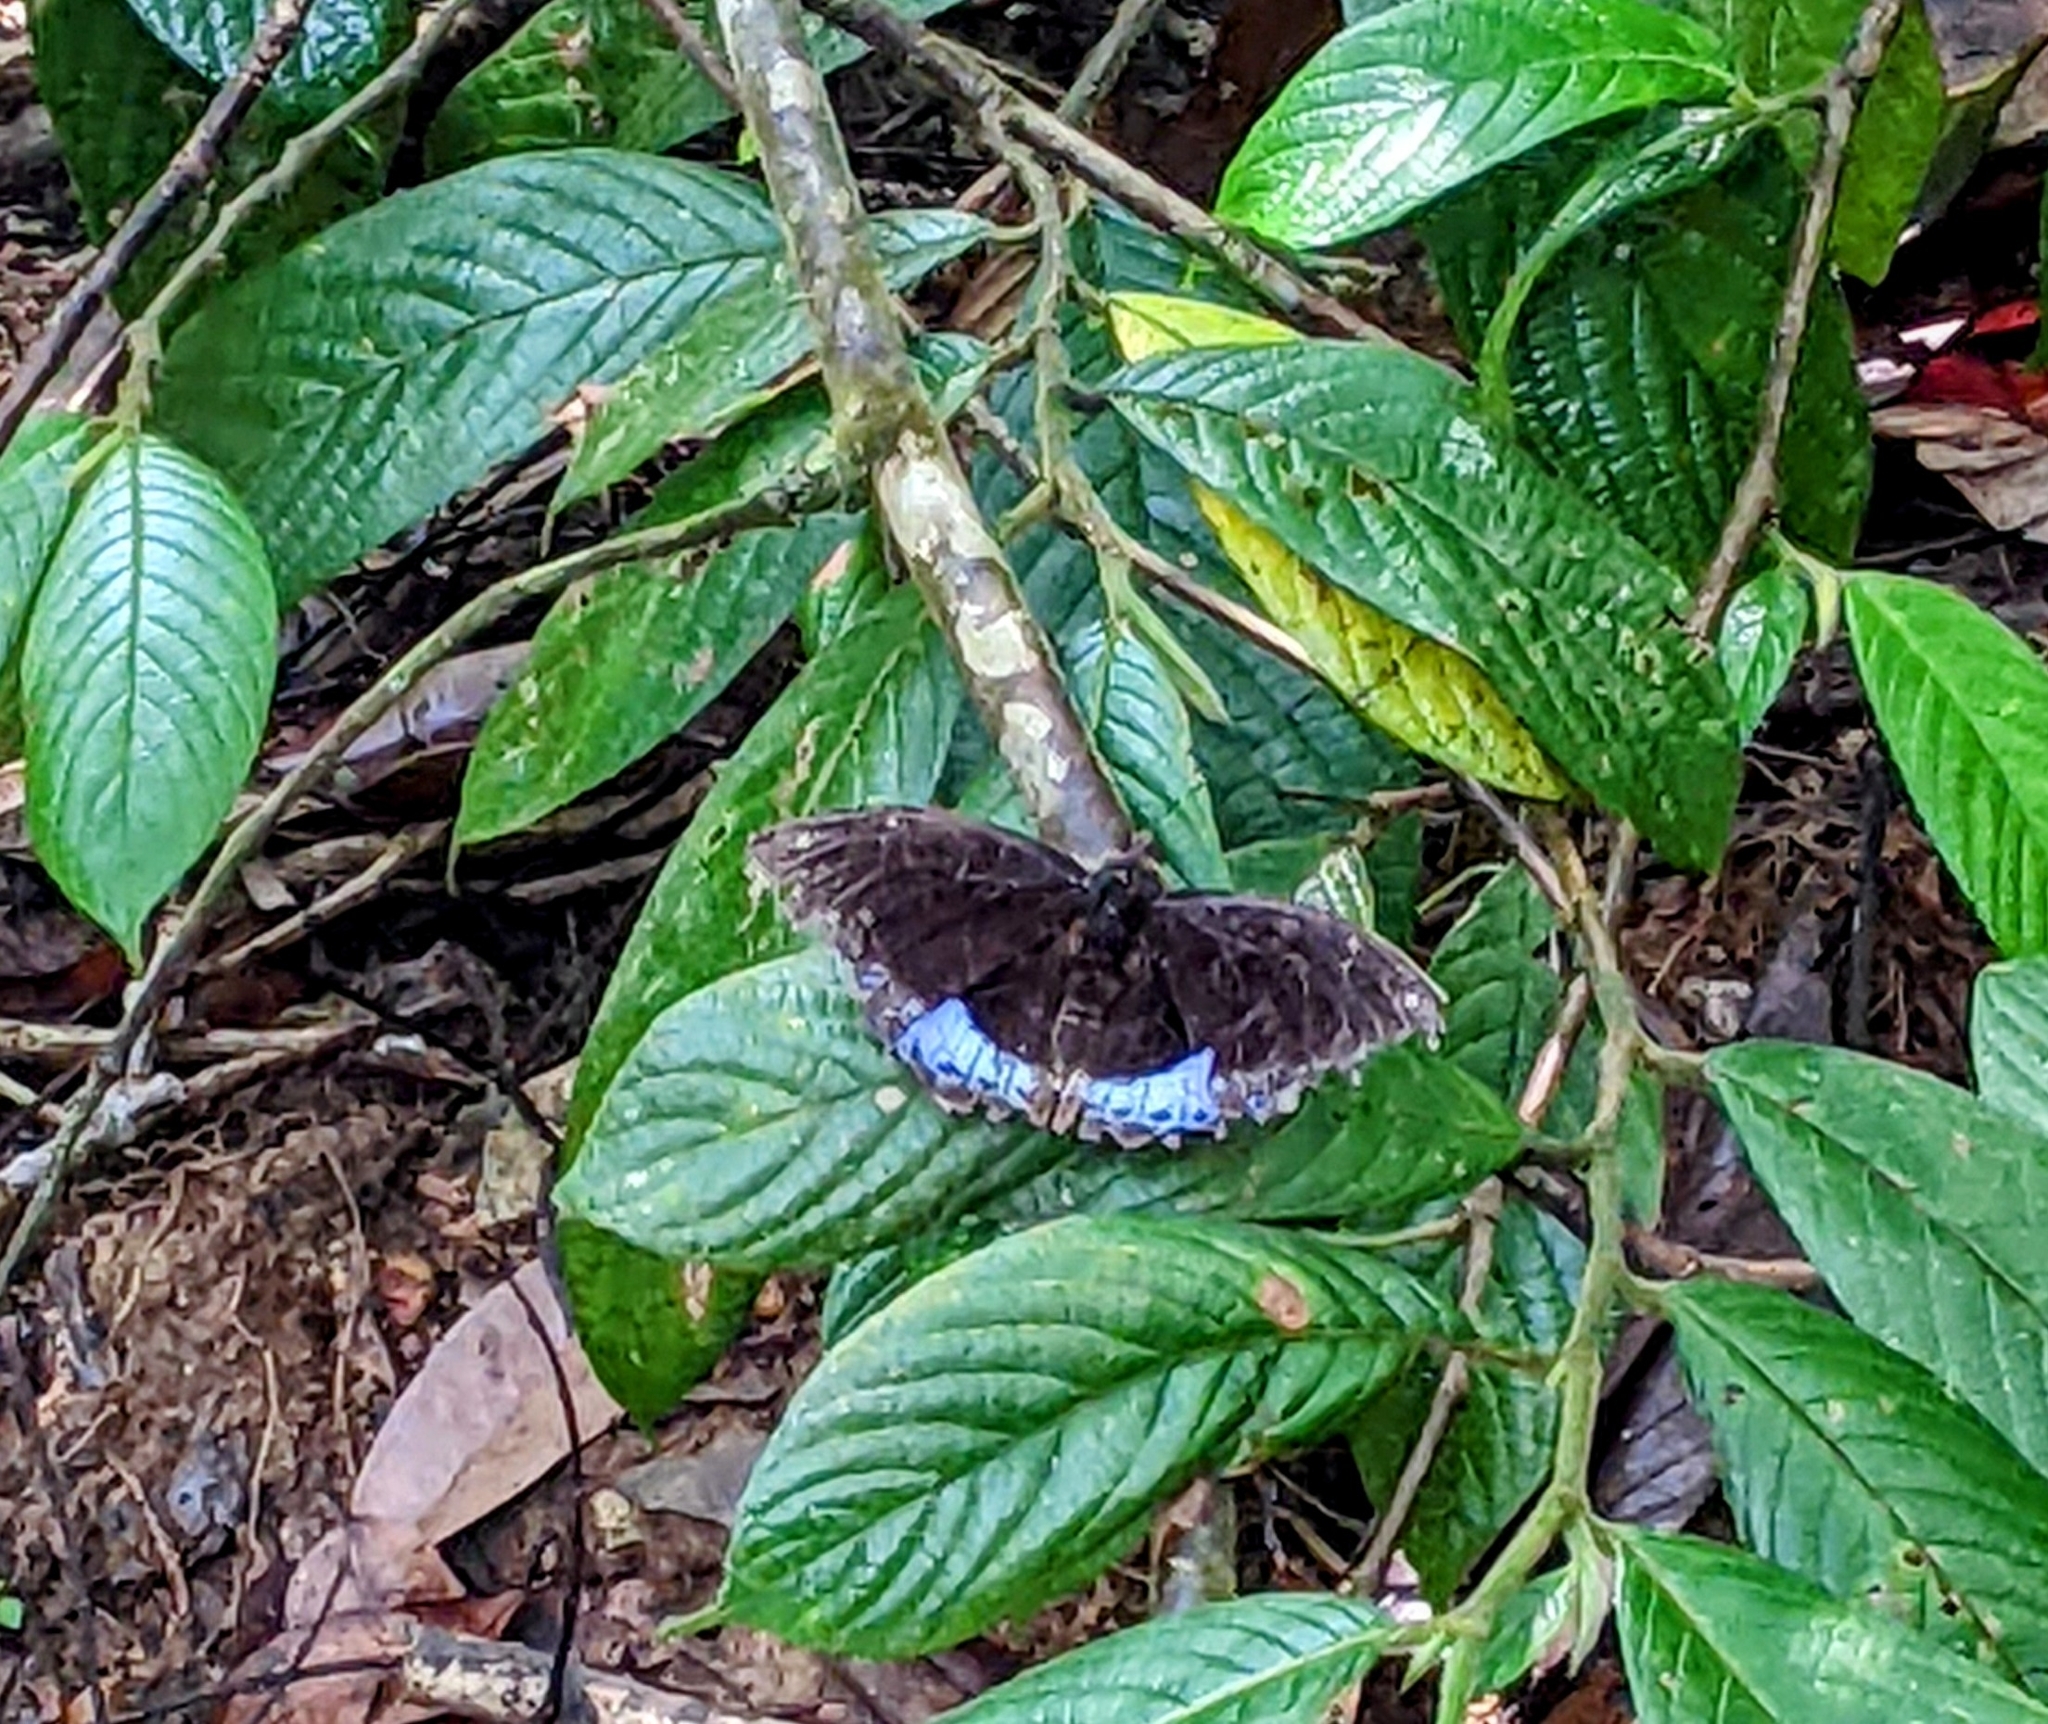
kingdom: Animalia
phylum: Arthropoda
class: Insecta
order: Lepidoptera
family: Nymphalidae
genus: Lexias
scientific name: Lexias dirtea
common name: Black-tipped archduke
